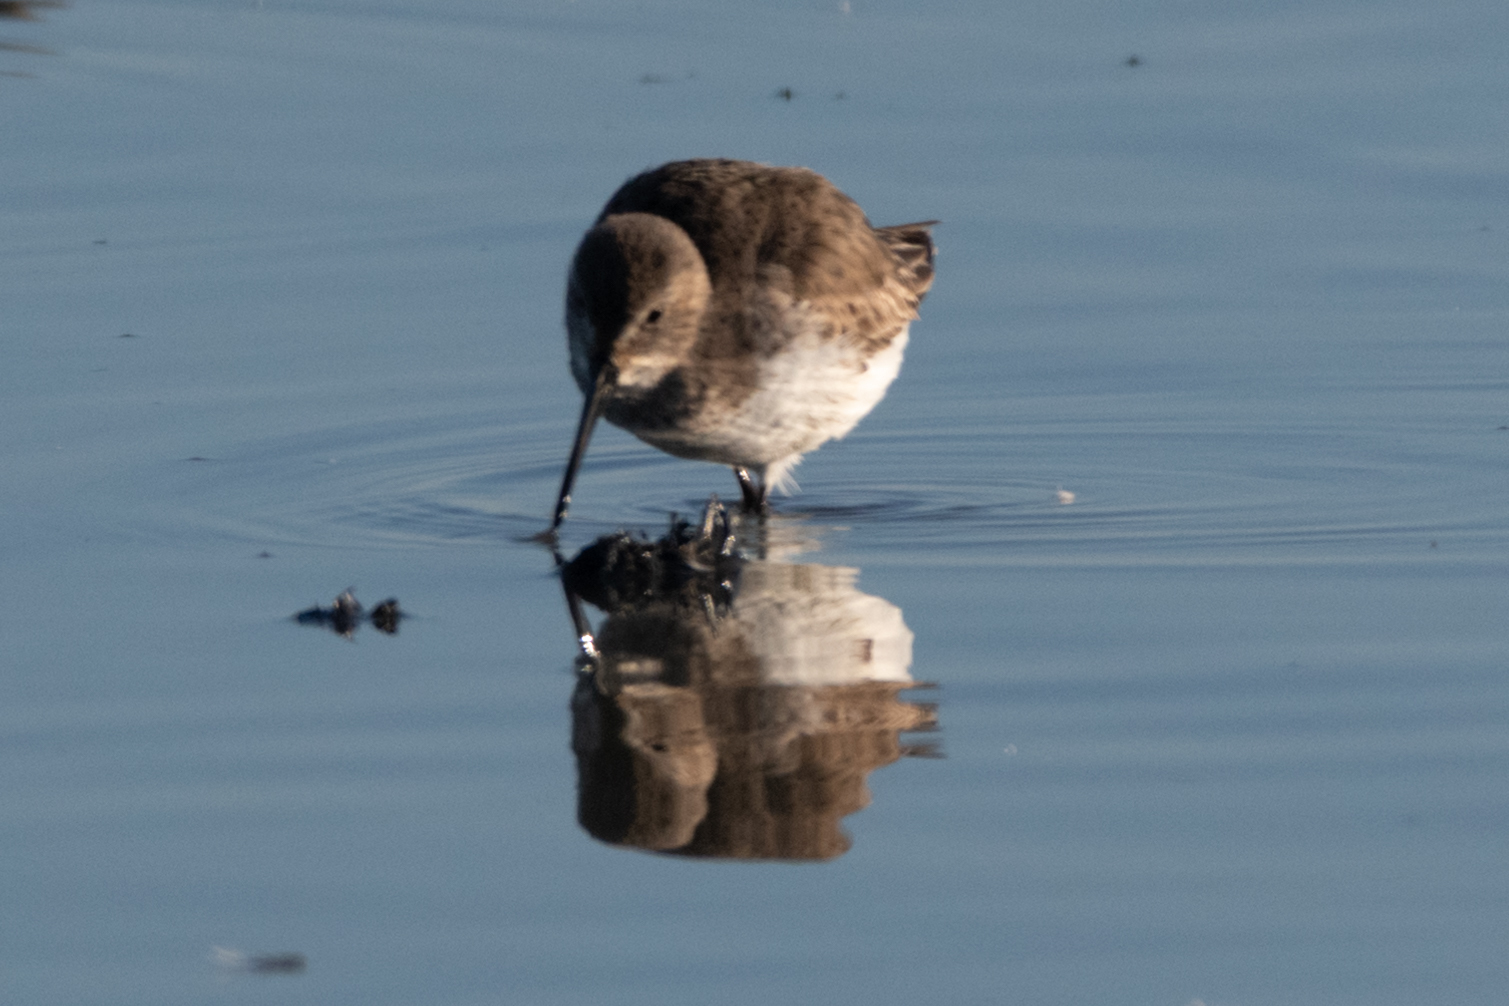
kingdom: Animalia
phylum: Chordata
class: Aves
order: Charadriiformes
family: Scolopacidae
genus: Calidris
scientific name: Calidris alpina
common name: Dunlin
